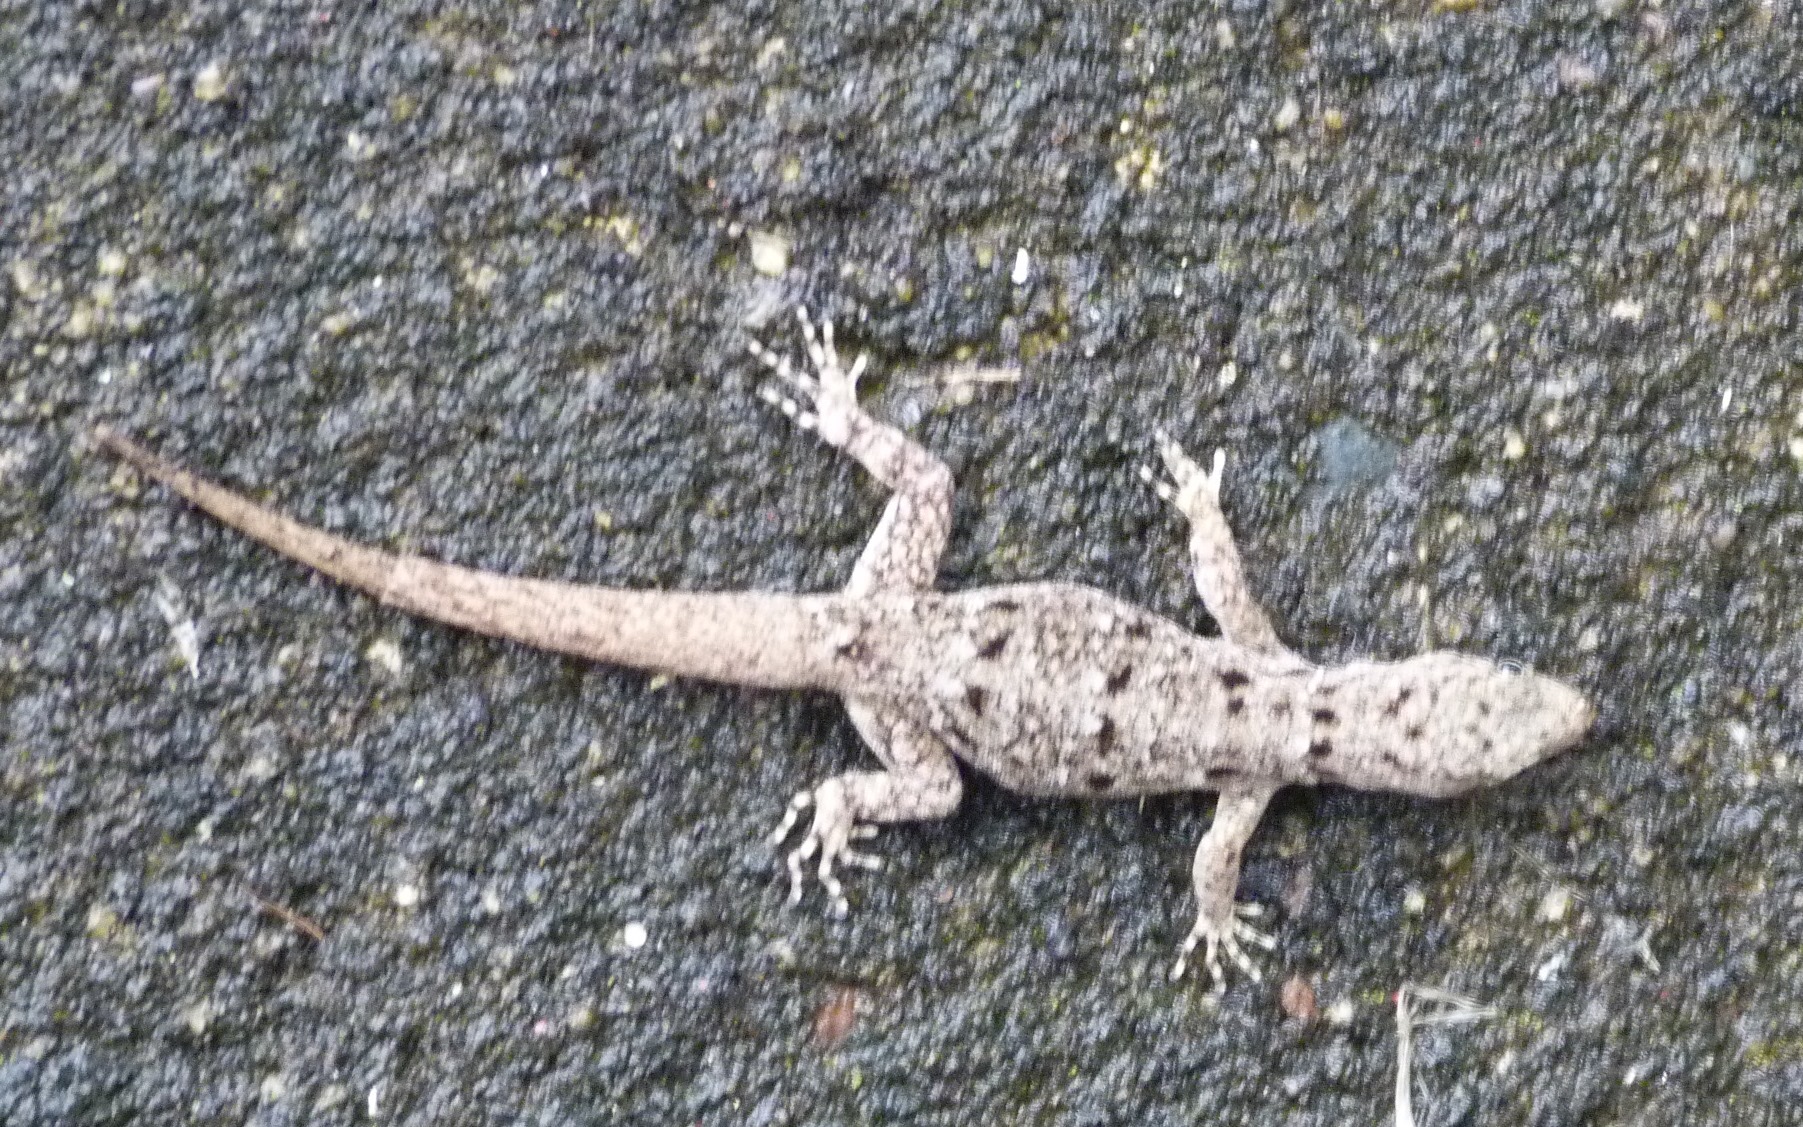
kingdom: Animalia
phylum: Chordata
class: Squamata
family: Sphaerodactylidae
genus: Gonatodes
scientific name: Gonatodes albogularis
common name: Yellow-headed gecko
